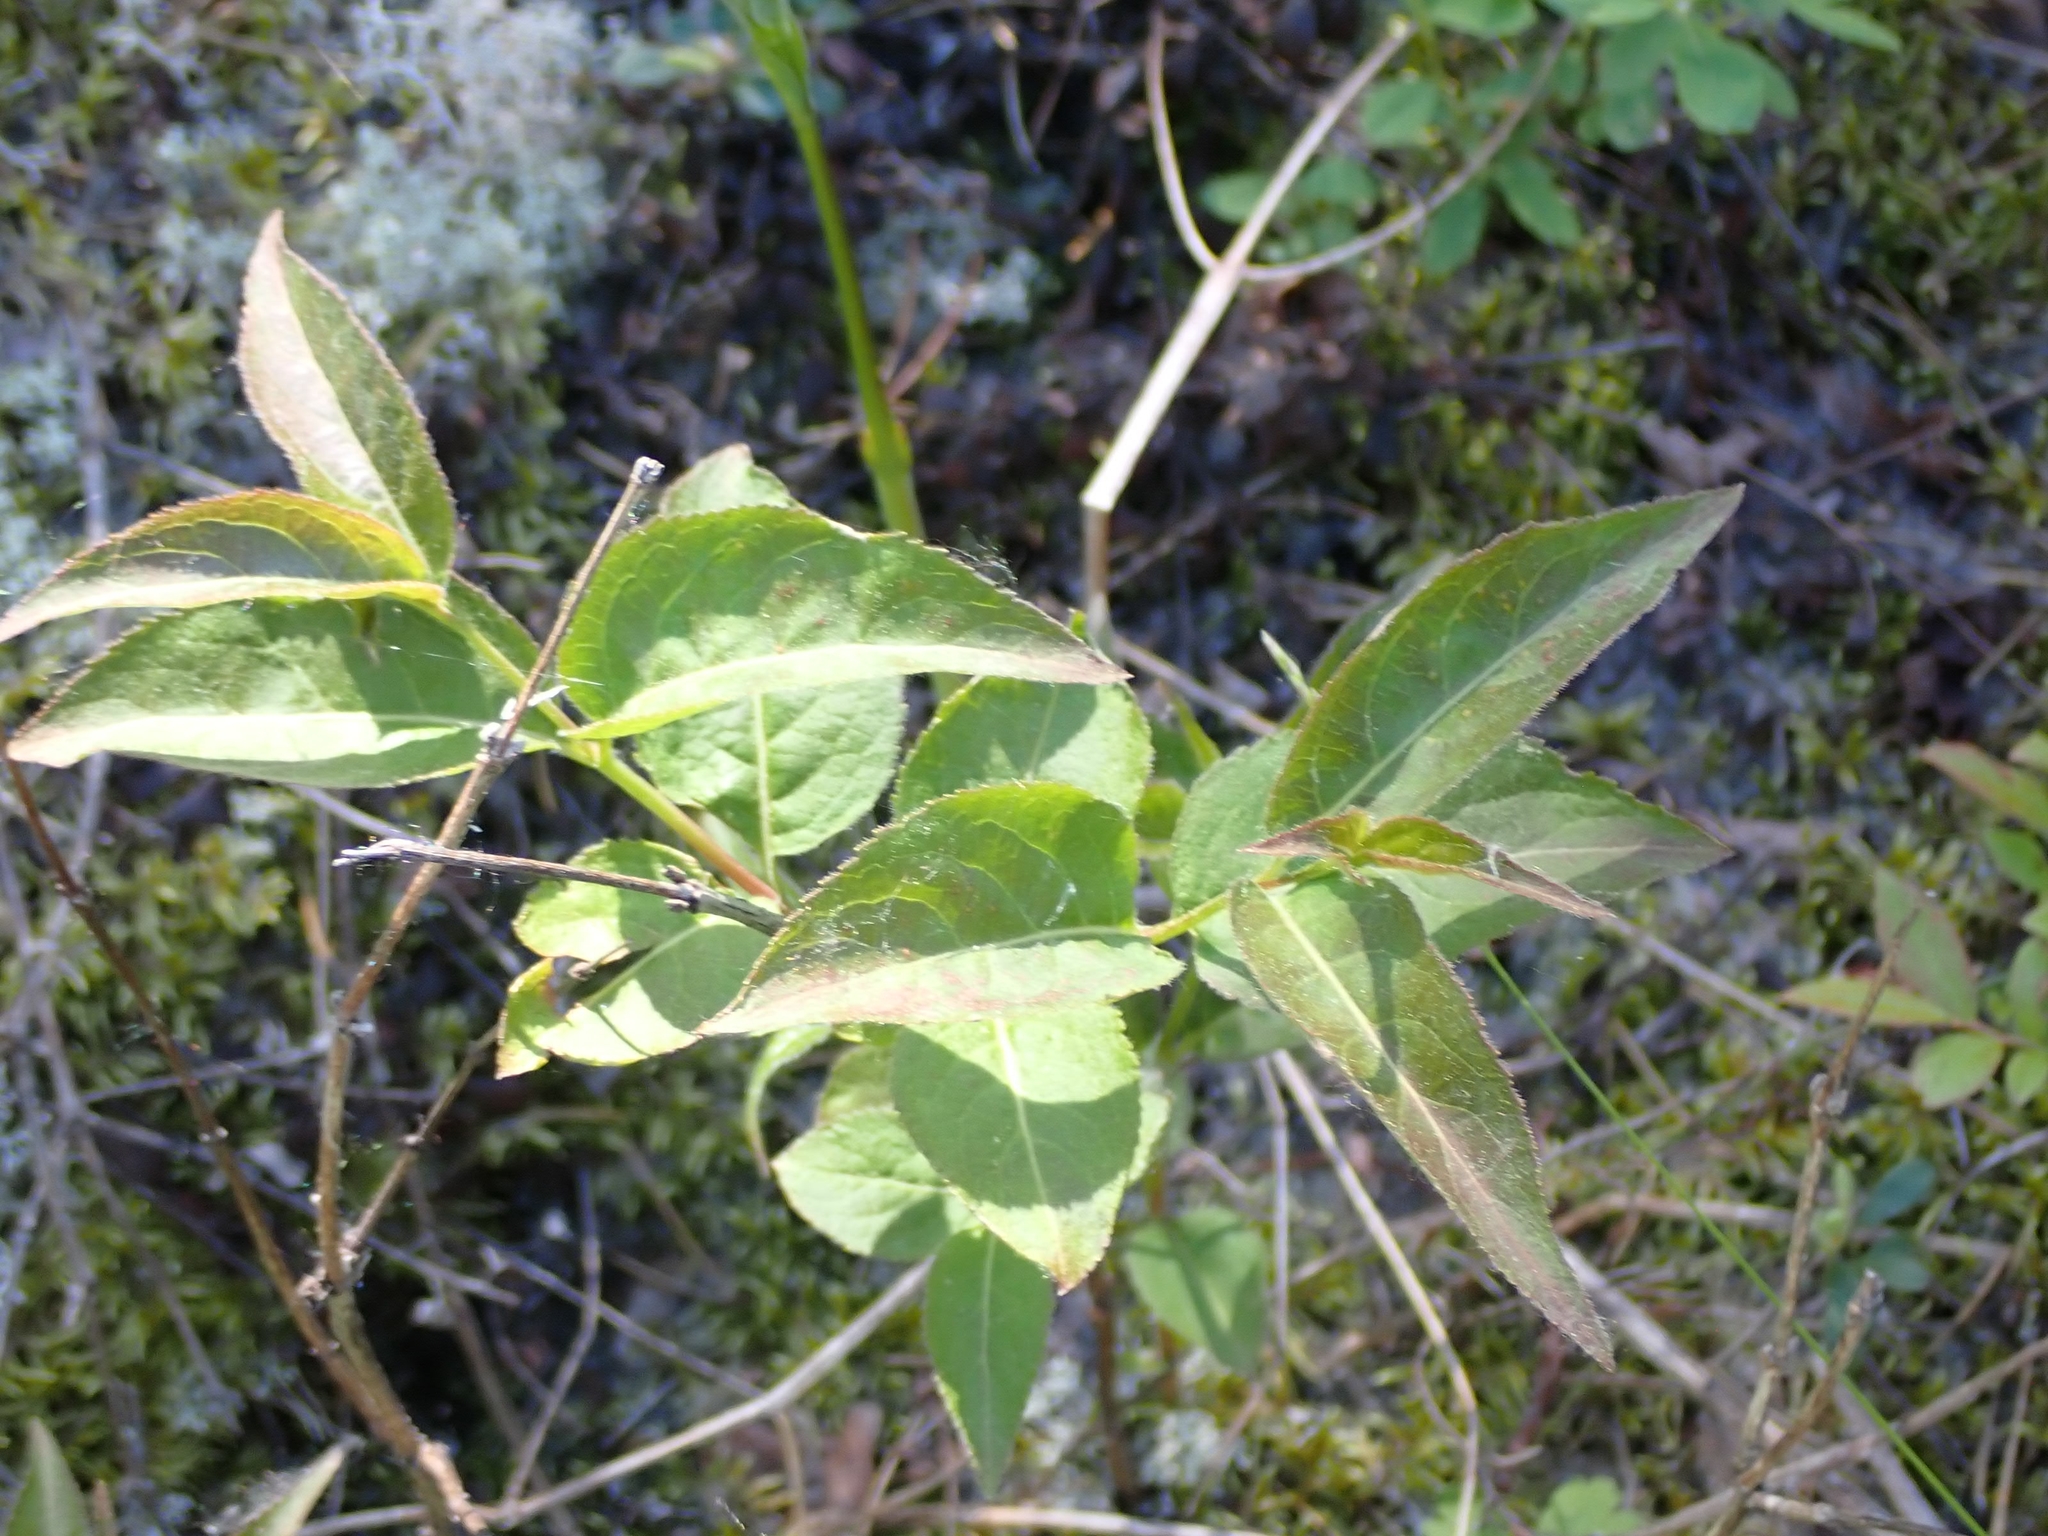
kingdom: Plantae
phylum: Tracheophyta
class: Magnoliopsida
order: Dipsacales
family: Caprifoliaceae
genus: Diervilla
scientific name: Diervilla lonicera
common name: Bush-honeysuckle
